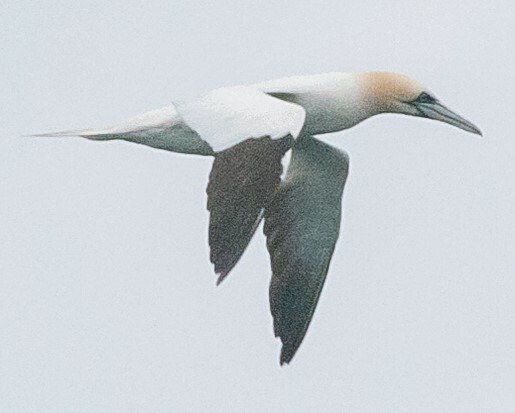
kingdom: Animalia
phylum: Chordata
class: Aves
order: Suliformes
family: Sulidae
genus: Morus
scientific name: Morus bassanus
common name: Northern gannet
